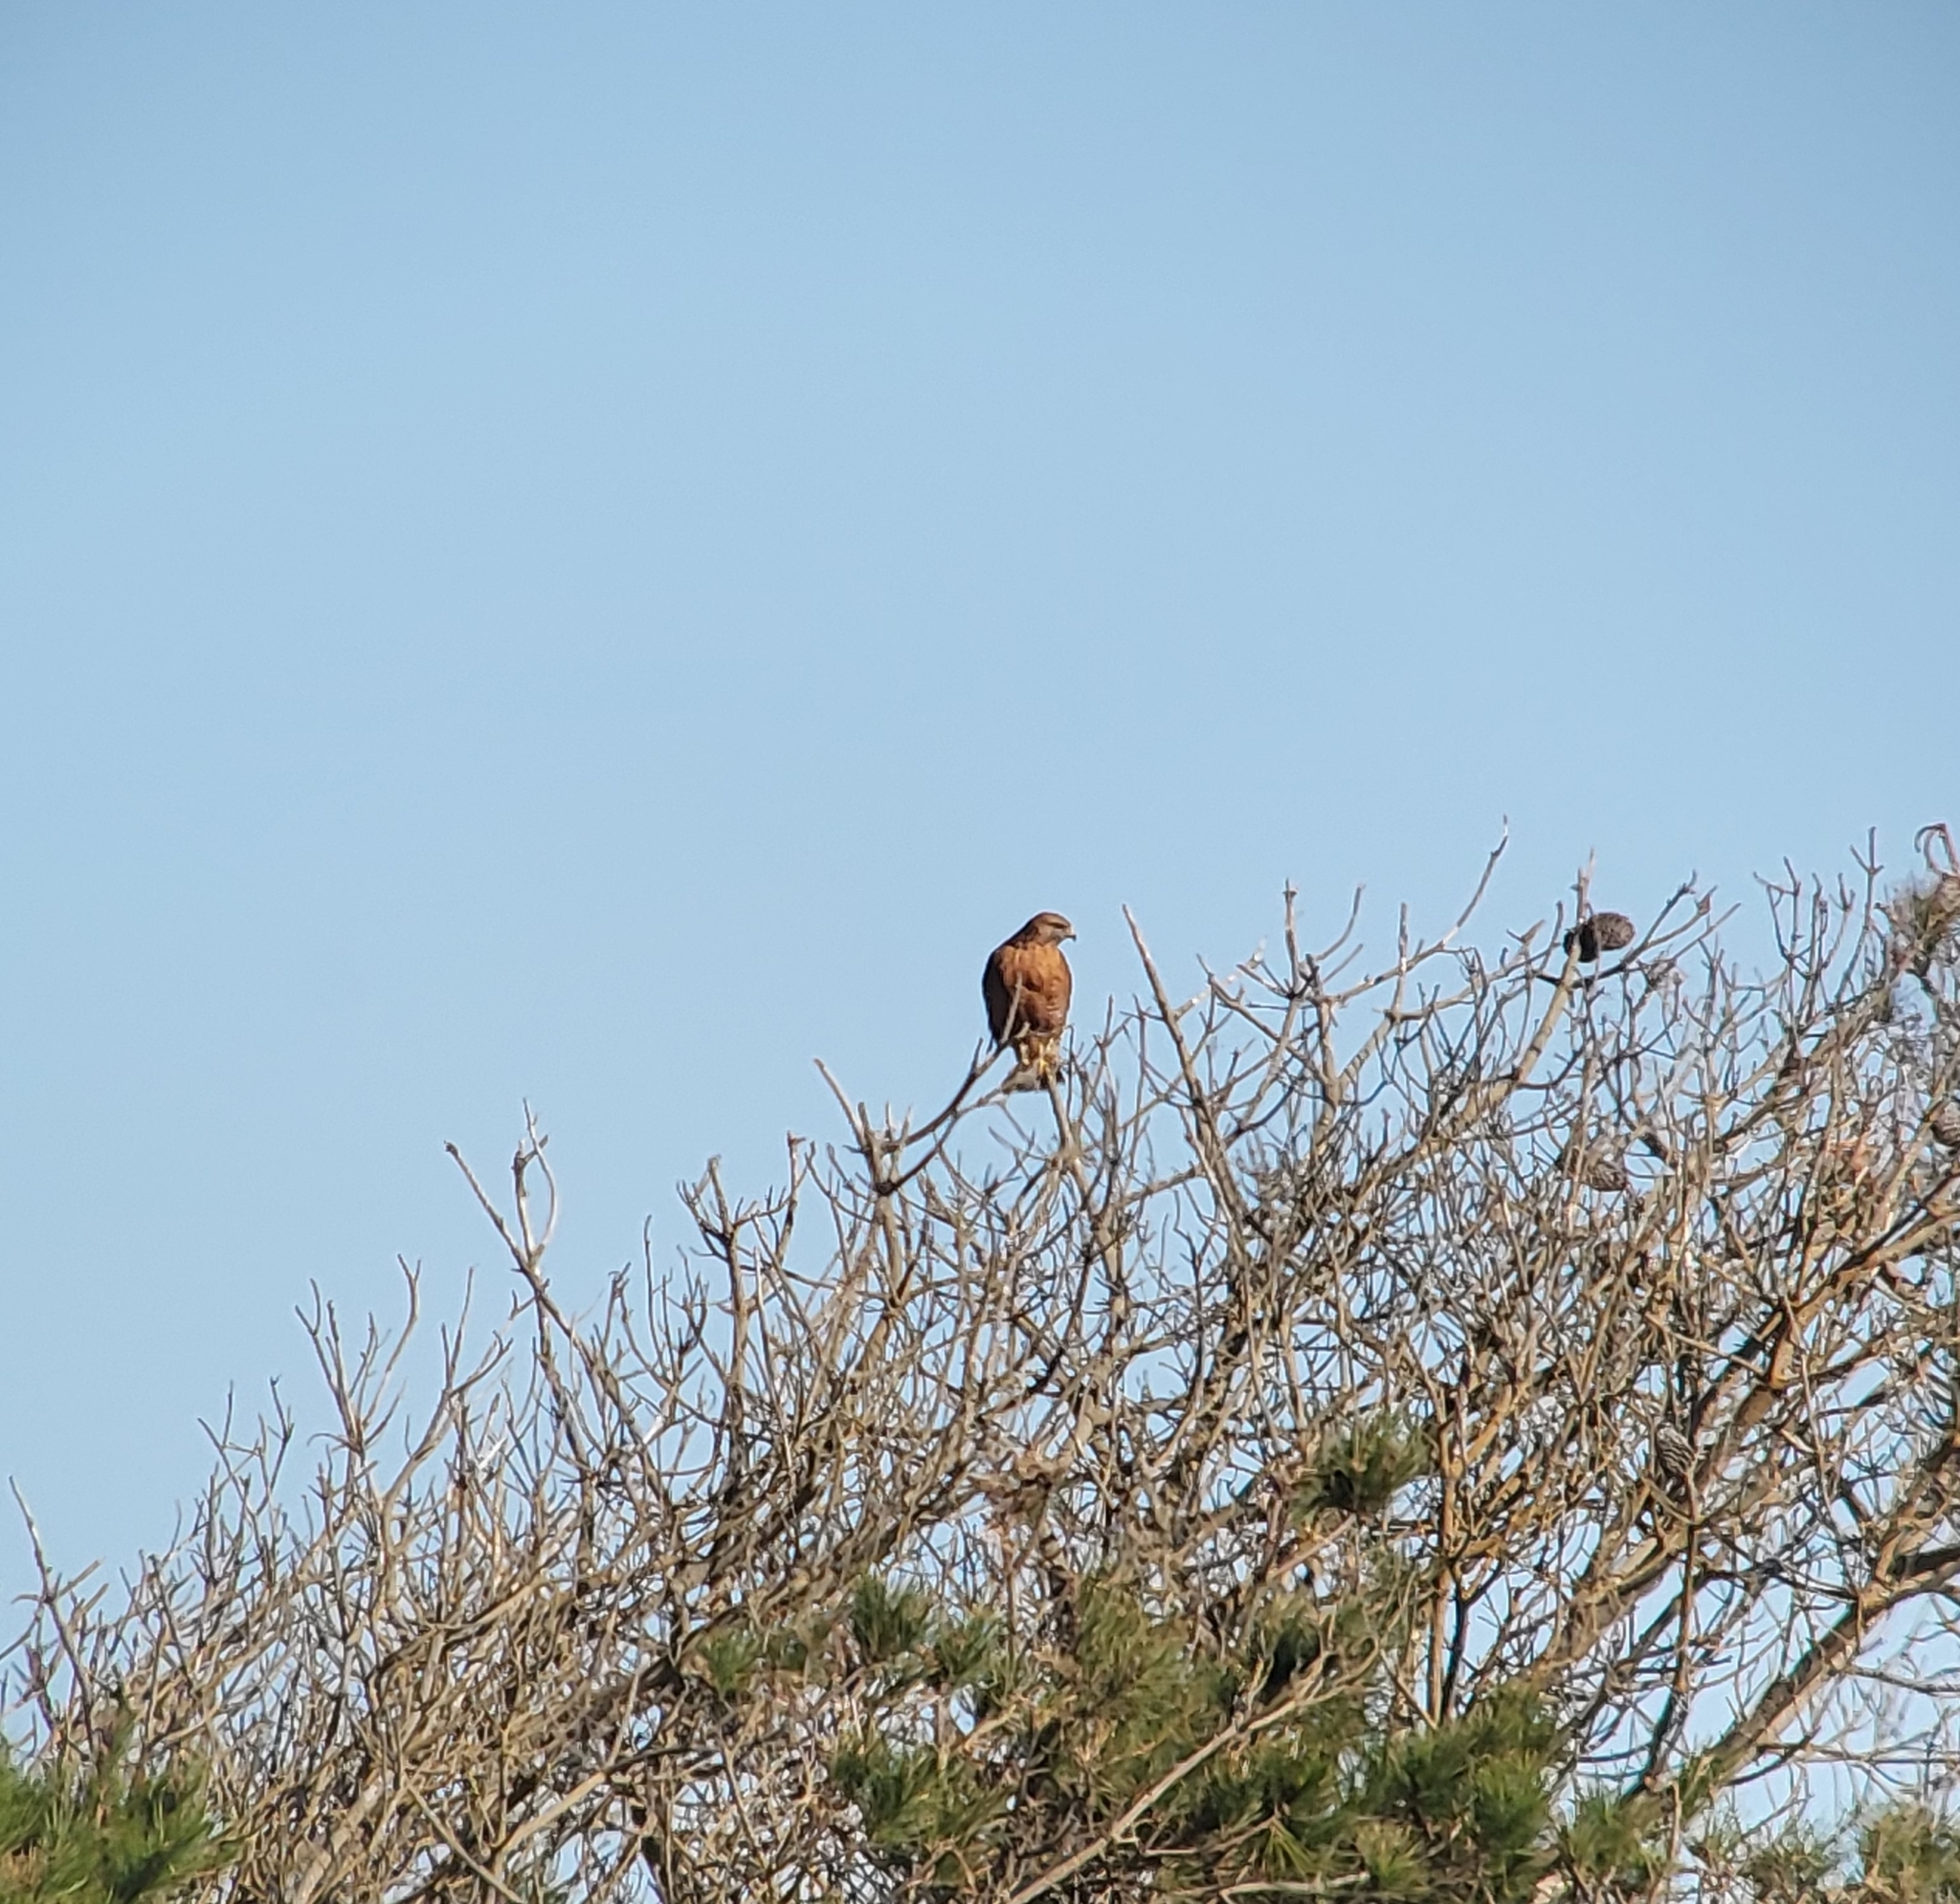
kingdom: Animalia
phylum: Chordata
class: Aves
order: Accipitriformes
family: Accipitridae
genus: Buteo
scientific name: Buteo lineatus
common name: Red-shouldered hawk
